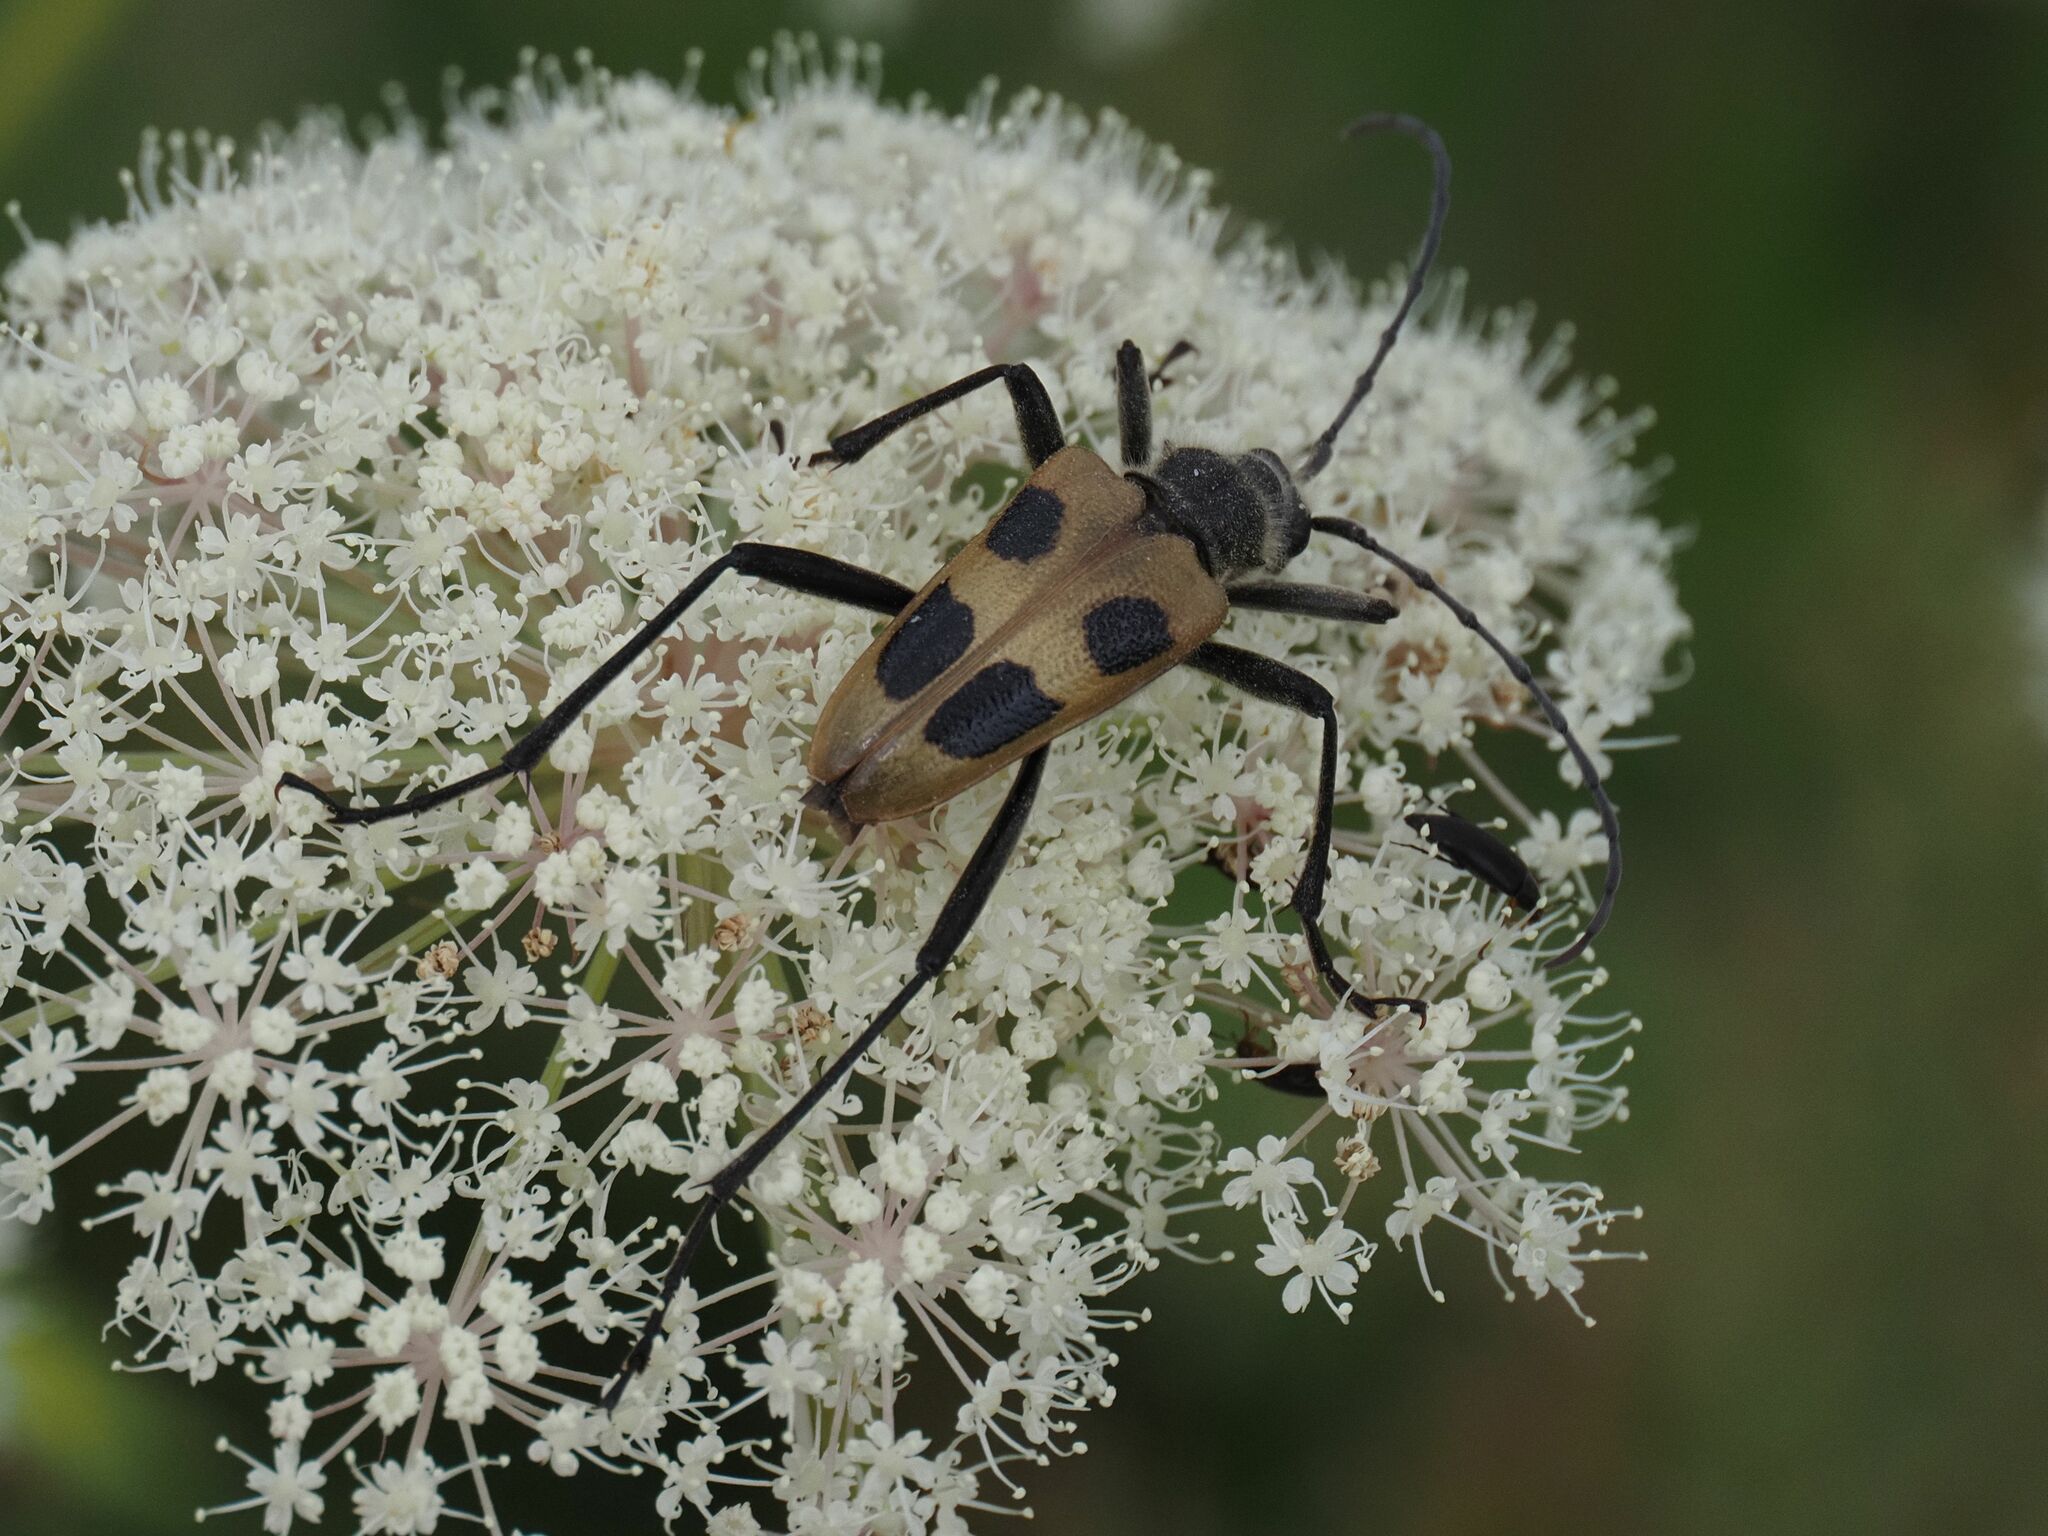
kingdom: Animalia
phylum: Arthropoda
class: Insecta
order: Coleoptera
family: Cerambycidae
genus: Pachyta
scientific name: Pachyta quadrimaculata
